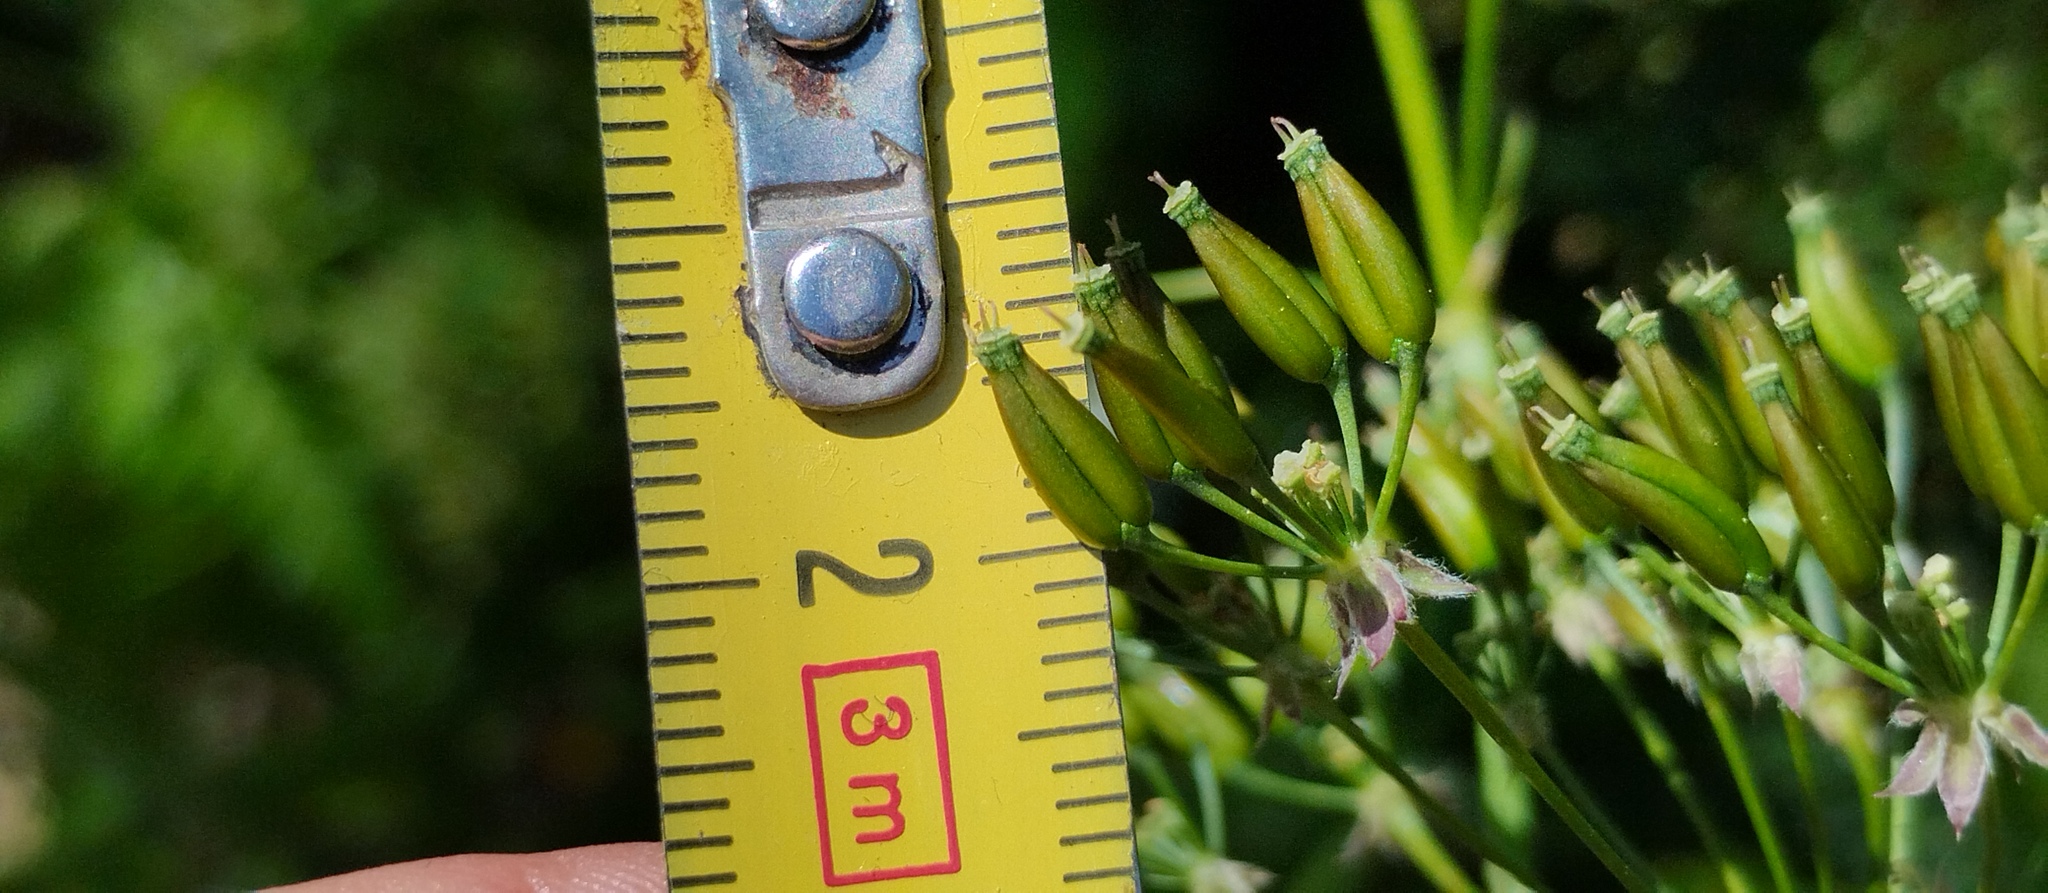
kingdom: Plantae
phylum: Tracheophyta
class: Magnoliopsida
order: Apiales
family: Apiaceae
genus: Anthriscus
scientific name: Anthriscus sylvestris
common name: Cow parsley
